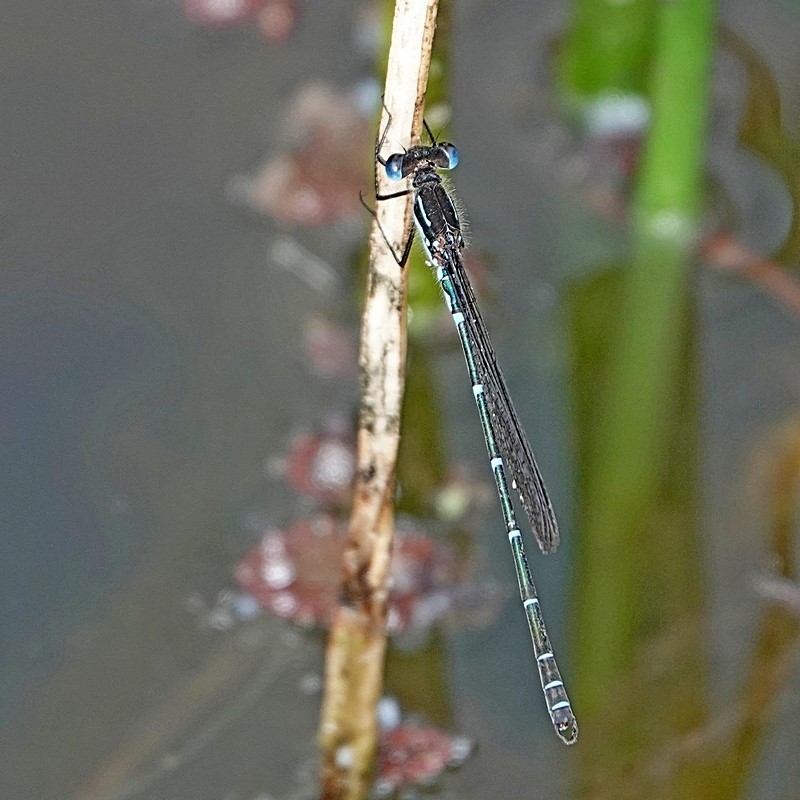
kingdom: Animalia
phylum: Arthropoda
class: Insecta
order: Odonata
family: Lestidae
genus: Austrolestes
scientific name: Austrolestes psyche
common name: Cup ringtail
